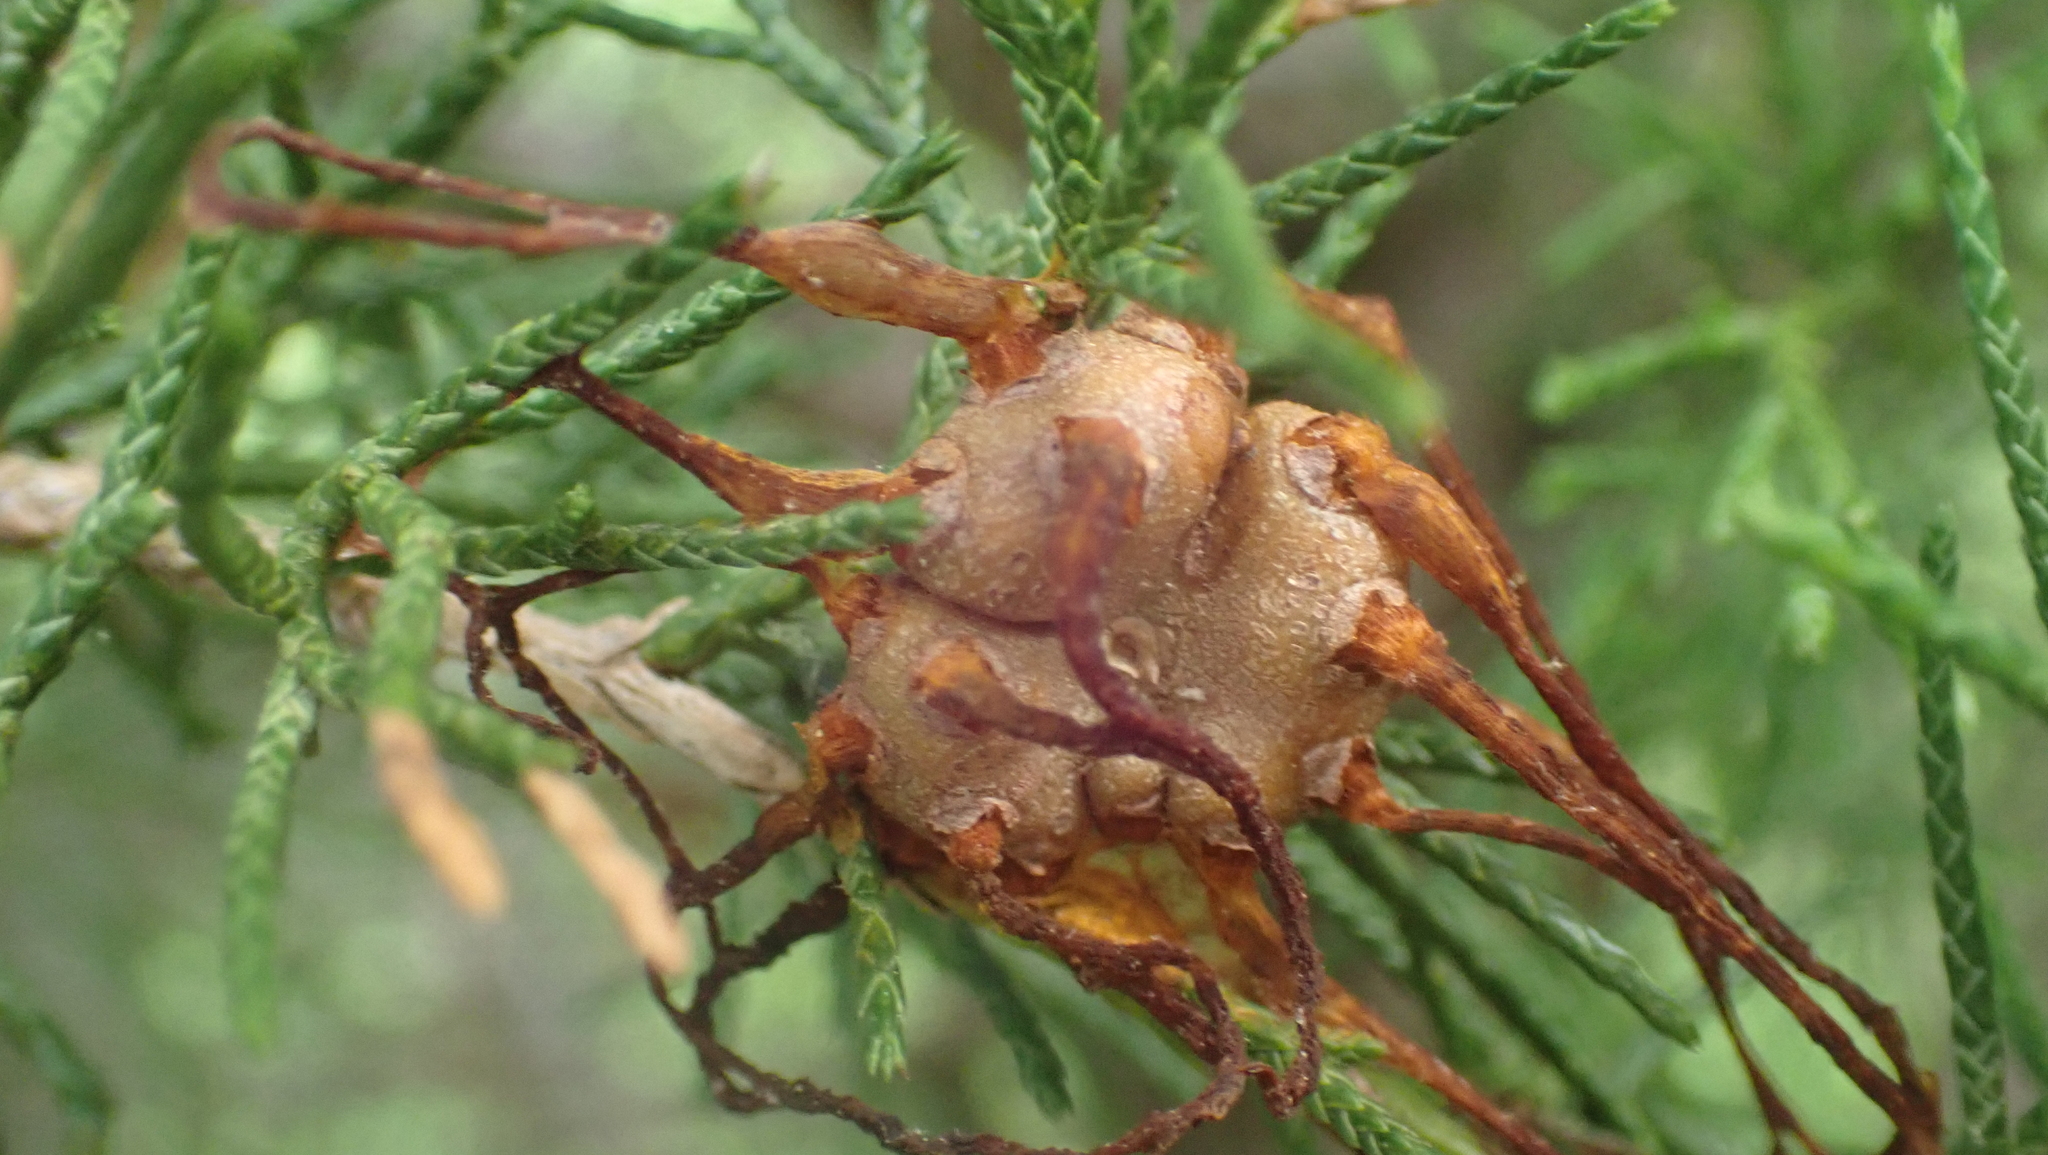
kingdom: Fungi
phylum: Basidiomycota
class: Pucciniomycetes
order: Pucciniales
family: Gymnosporangiaceae
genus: Gymnosporangium
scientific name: Gymnosporangium juniperi-virginianae
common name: Juniper-apple rust
